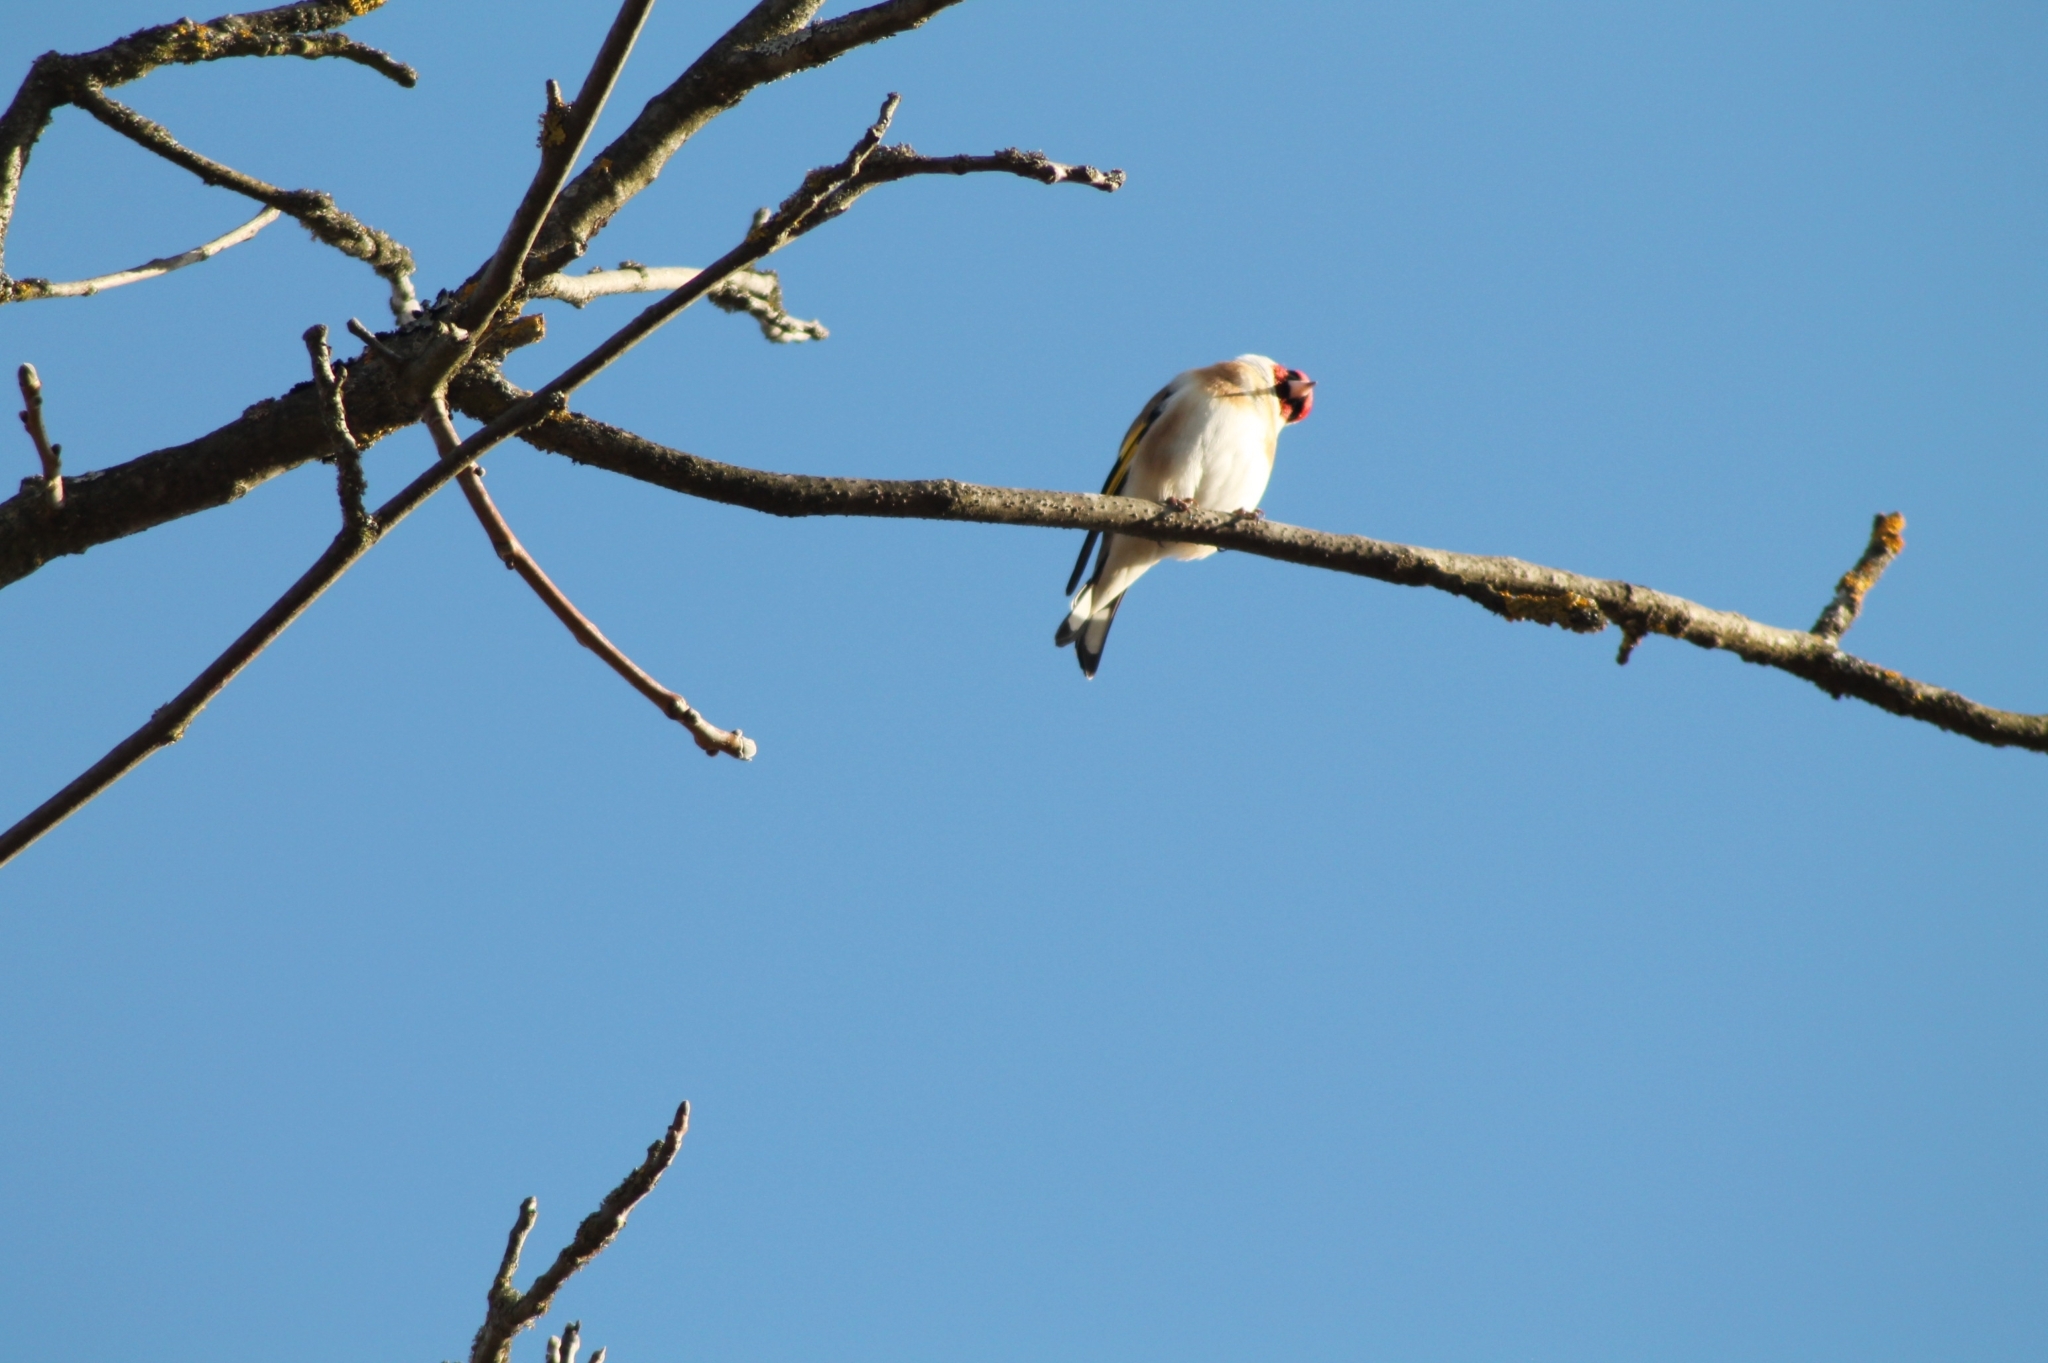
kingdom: Animalia
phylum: Chordata
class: Aves
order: Passeriformes
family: Fringillidae
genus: Carduelis
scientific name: Carduelis carduelis
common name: European goldfinch
